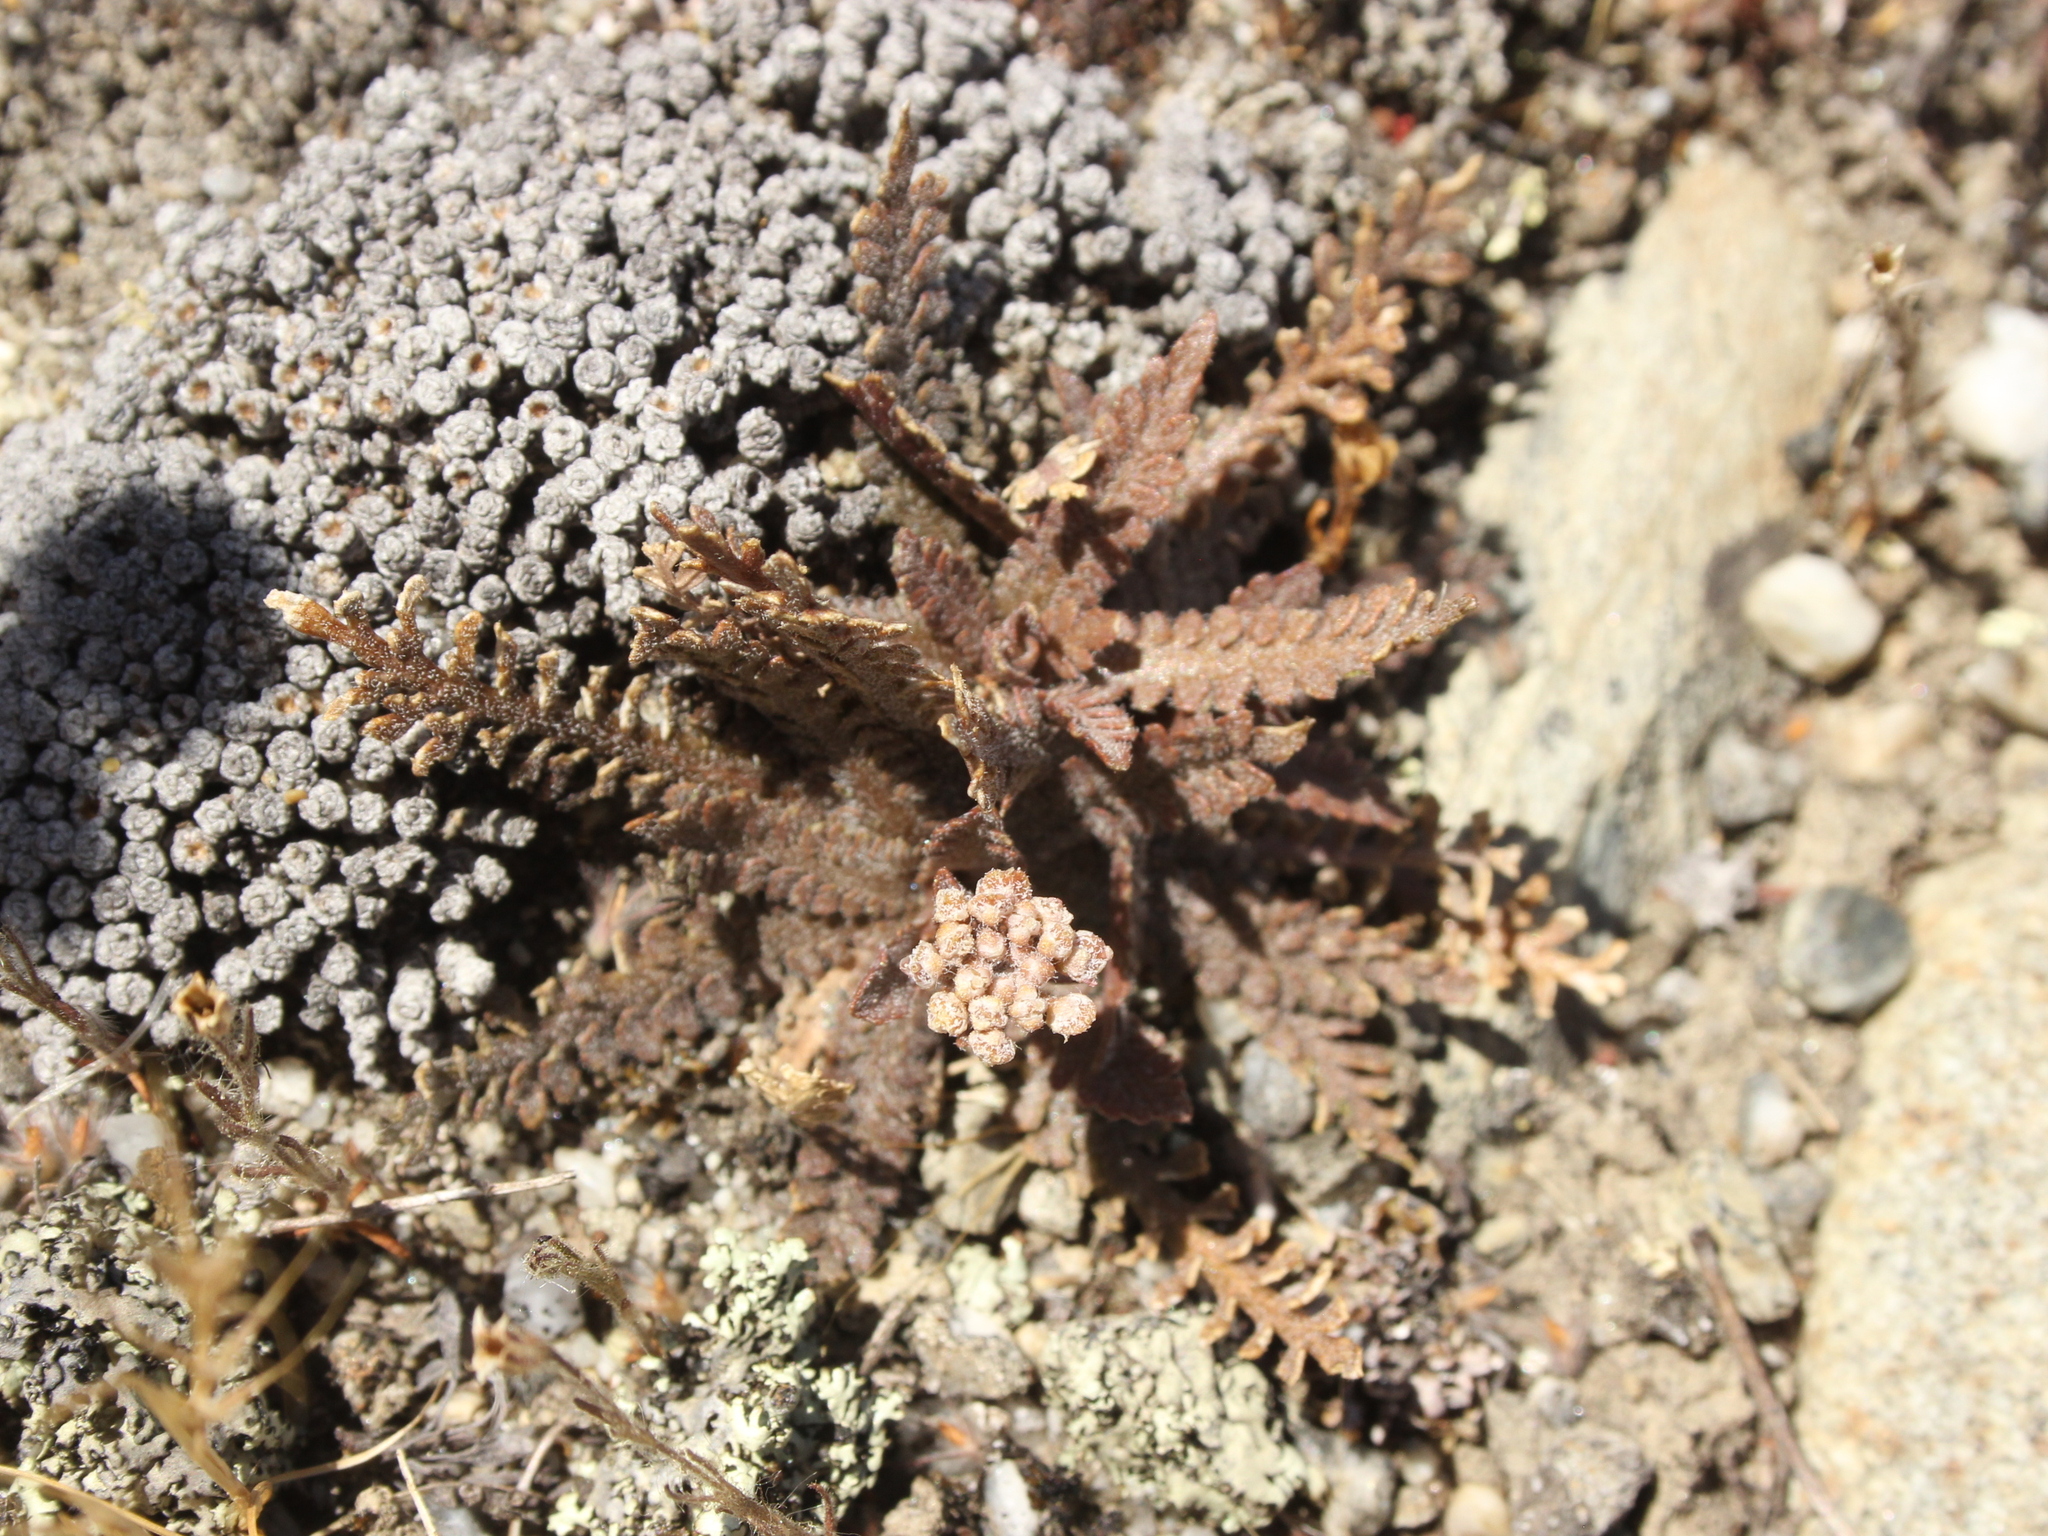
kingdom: Plantae
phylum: Tracheophyta
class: Magnoliopsida
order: Brassicales
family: Brassicaceae
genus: Lepidium
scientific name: Lepidium sisymbrioides
